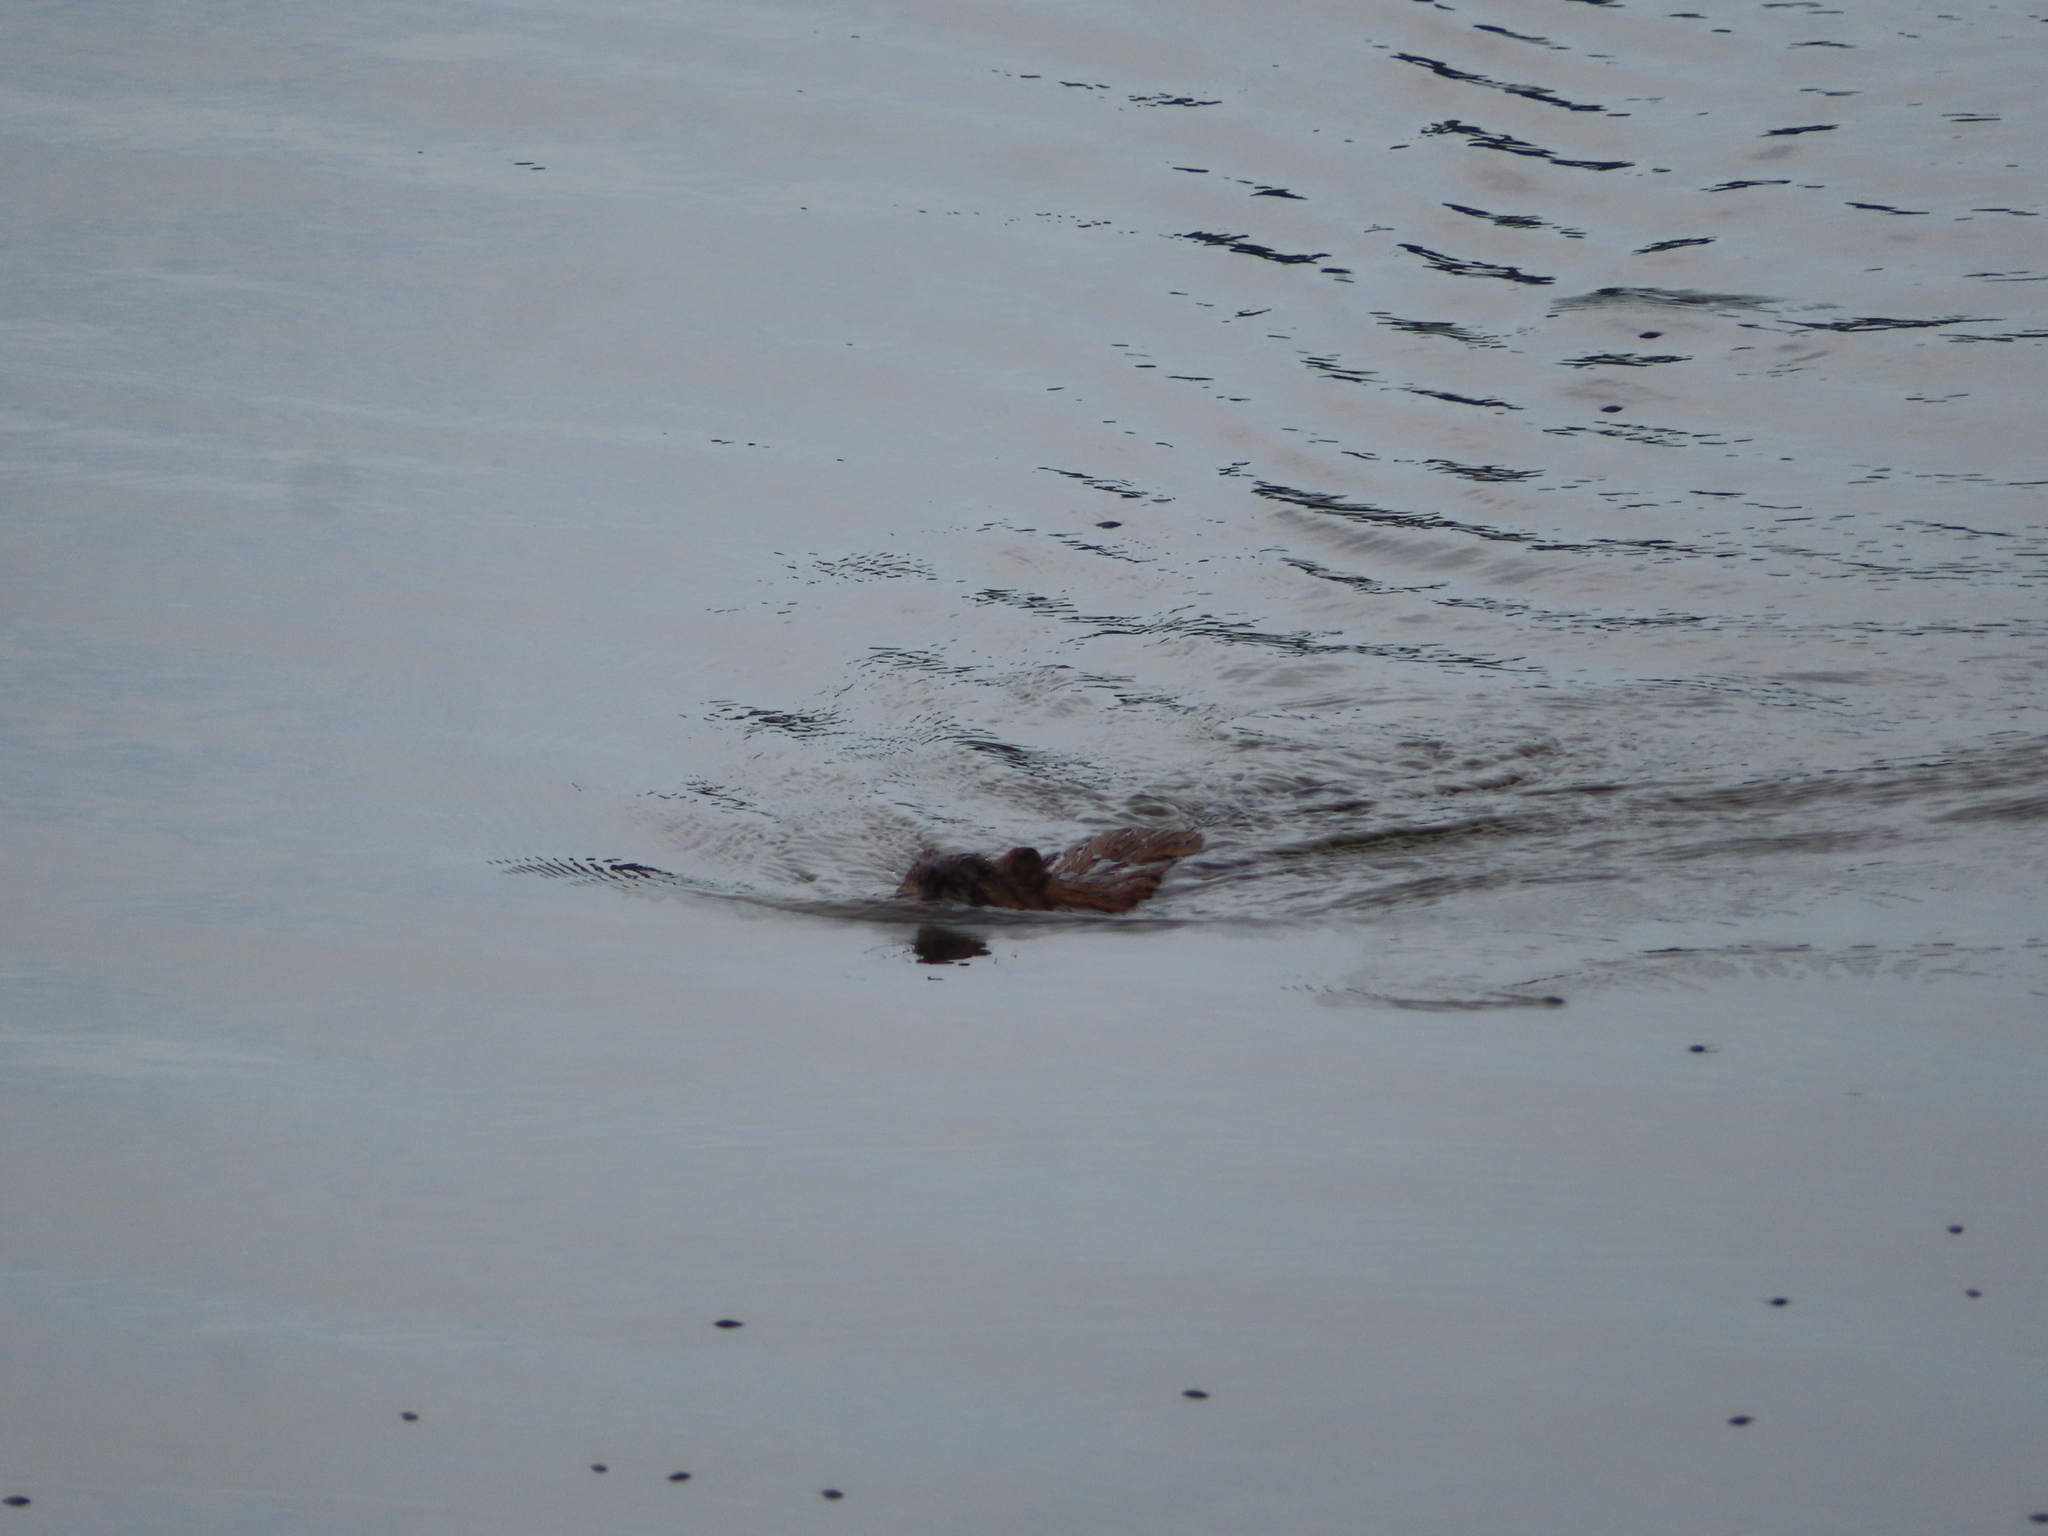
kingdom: Animalia
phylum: Chordata
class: Mammalia
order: Rodentia
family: Cricetidae
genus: Ondatra
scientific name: Ondatra zibethicus
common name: Muskrat
